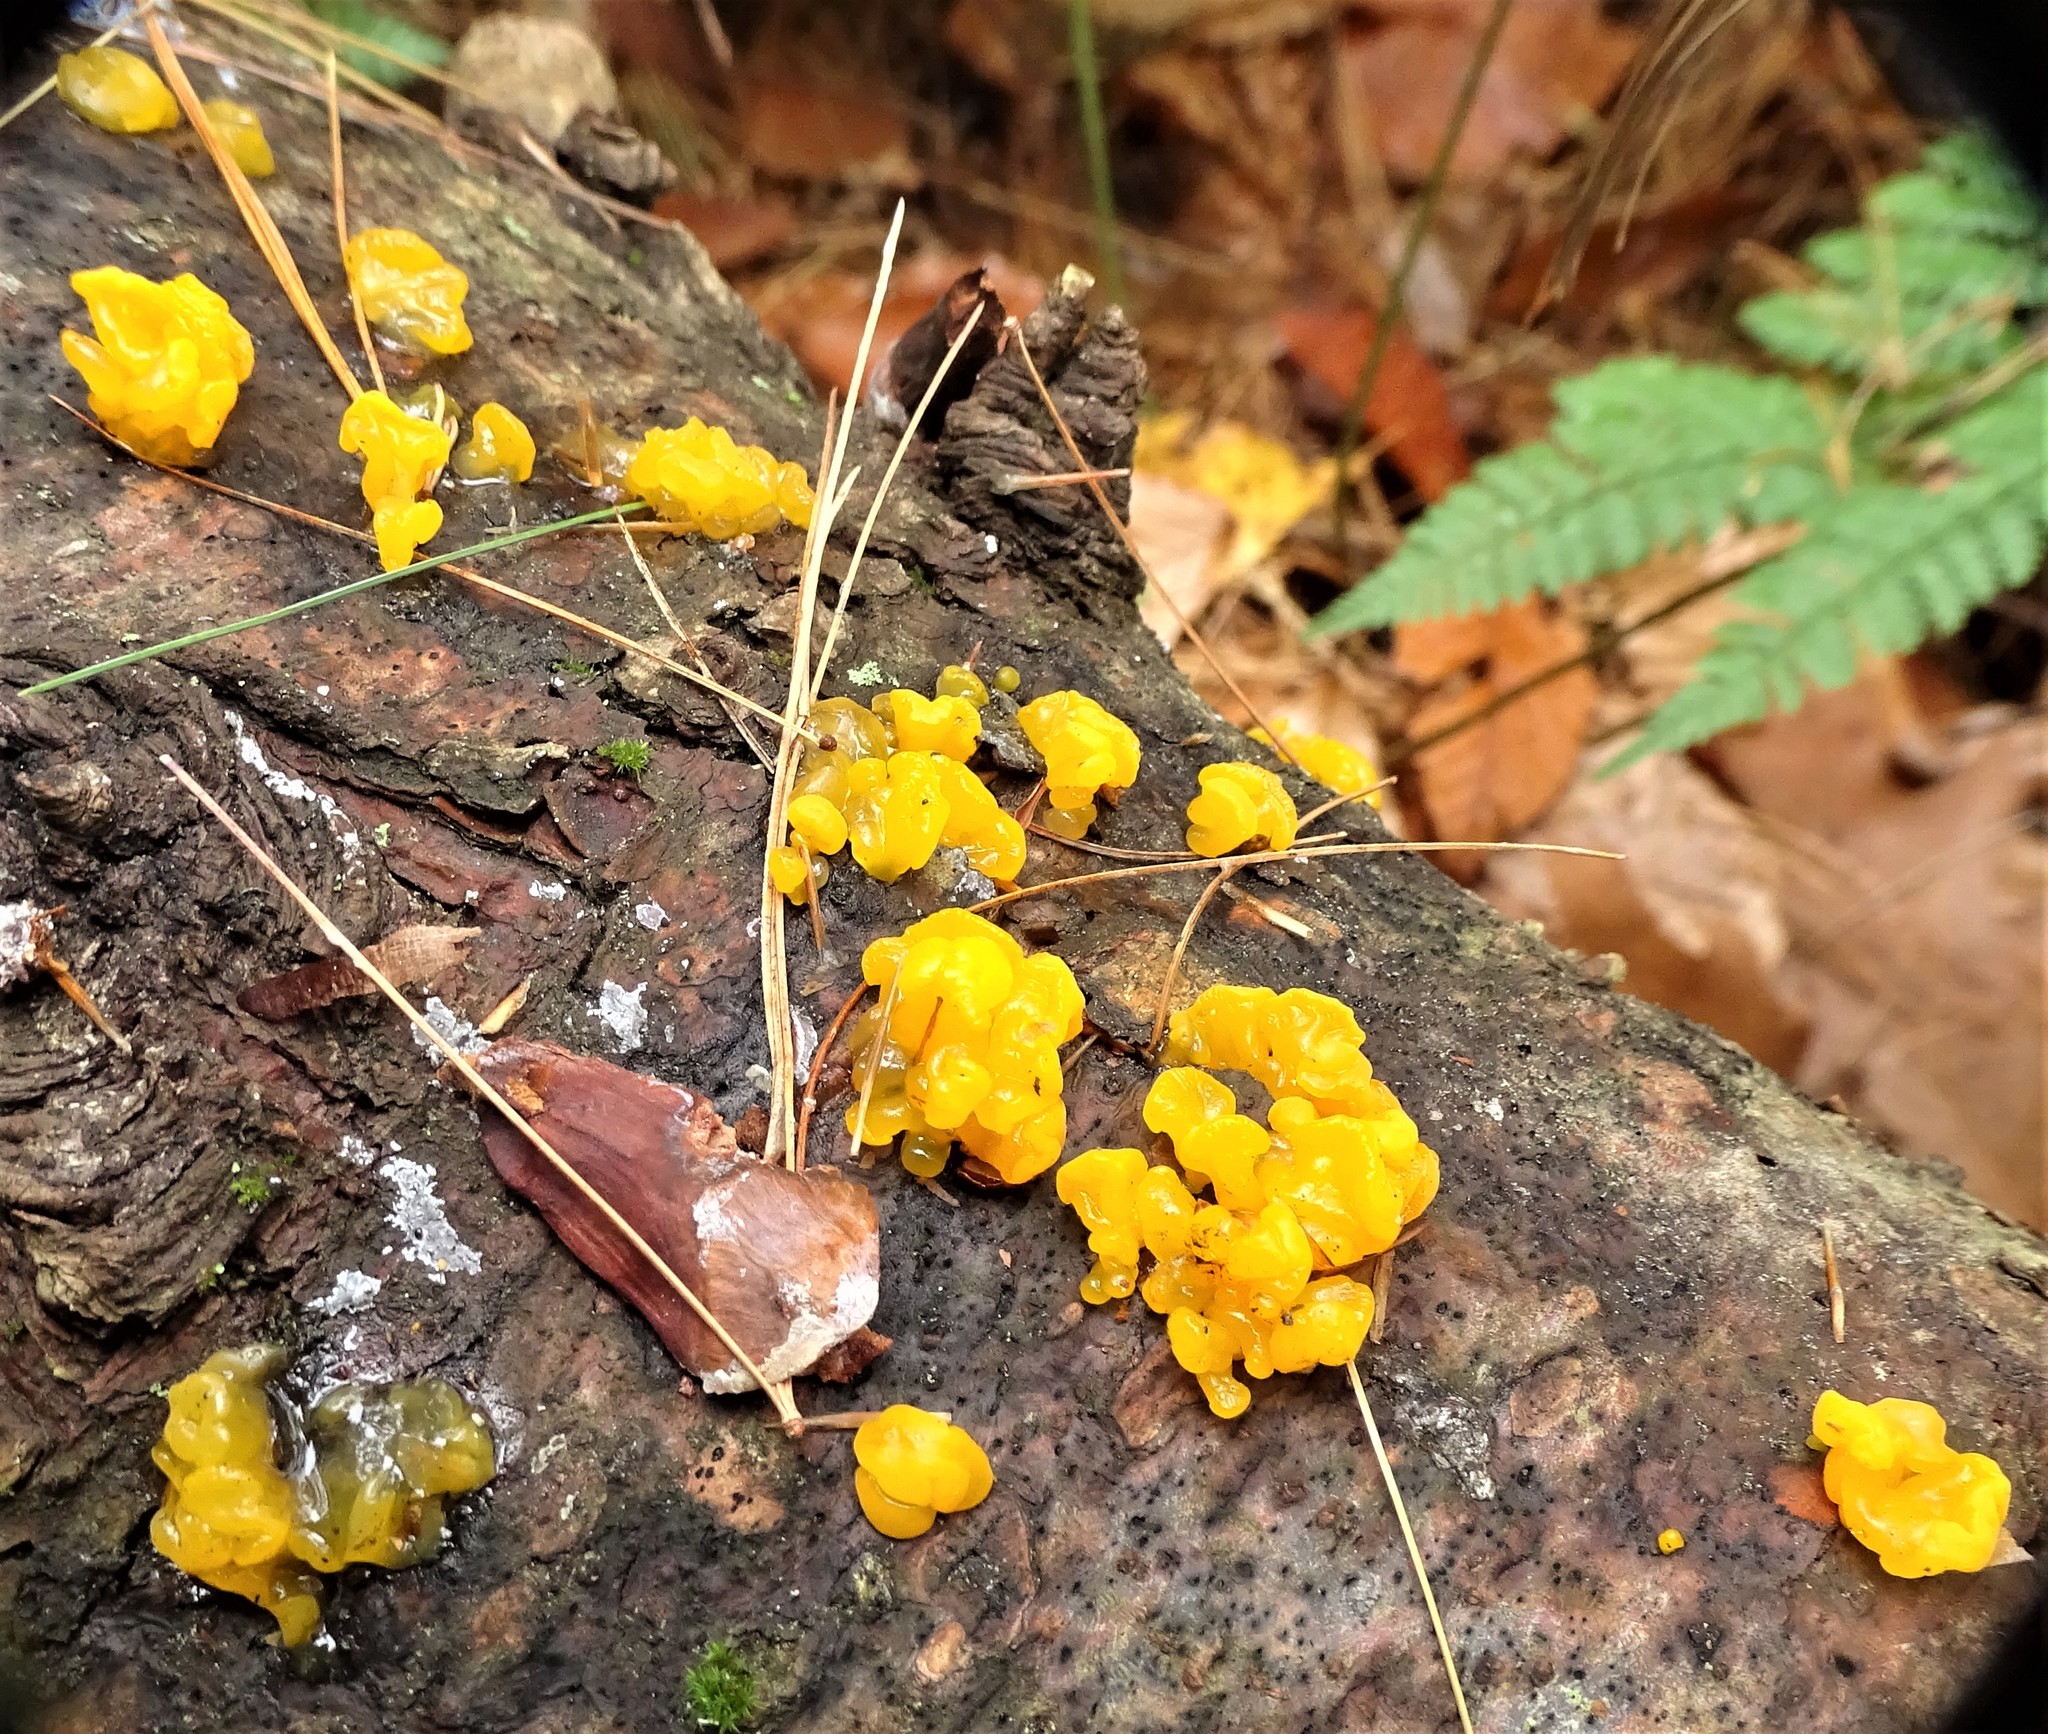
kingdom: Fungi
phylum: Basidiomycota
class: Dacrymycetes
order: Dacrymycetales
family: Dacrymycetaceae
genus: Dacrymyces
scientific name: Dacrymyces chrysospermus
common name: Orange jelly spot
